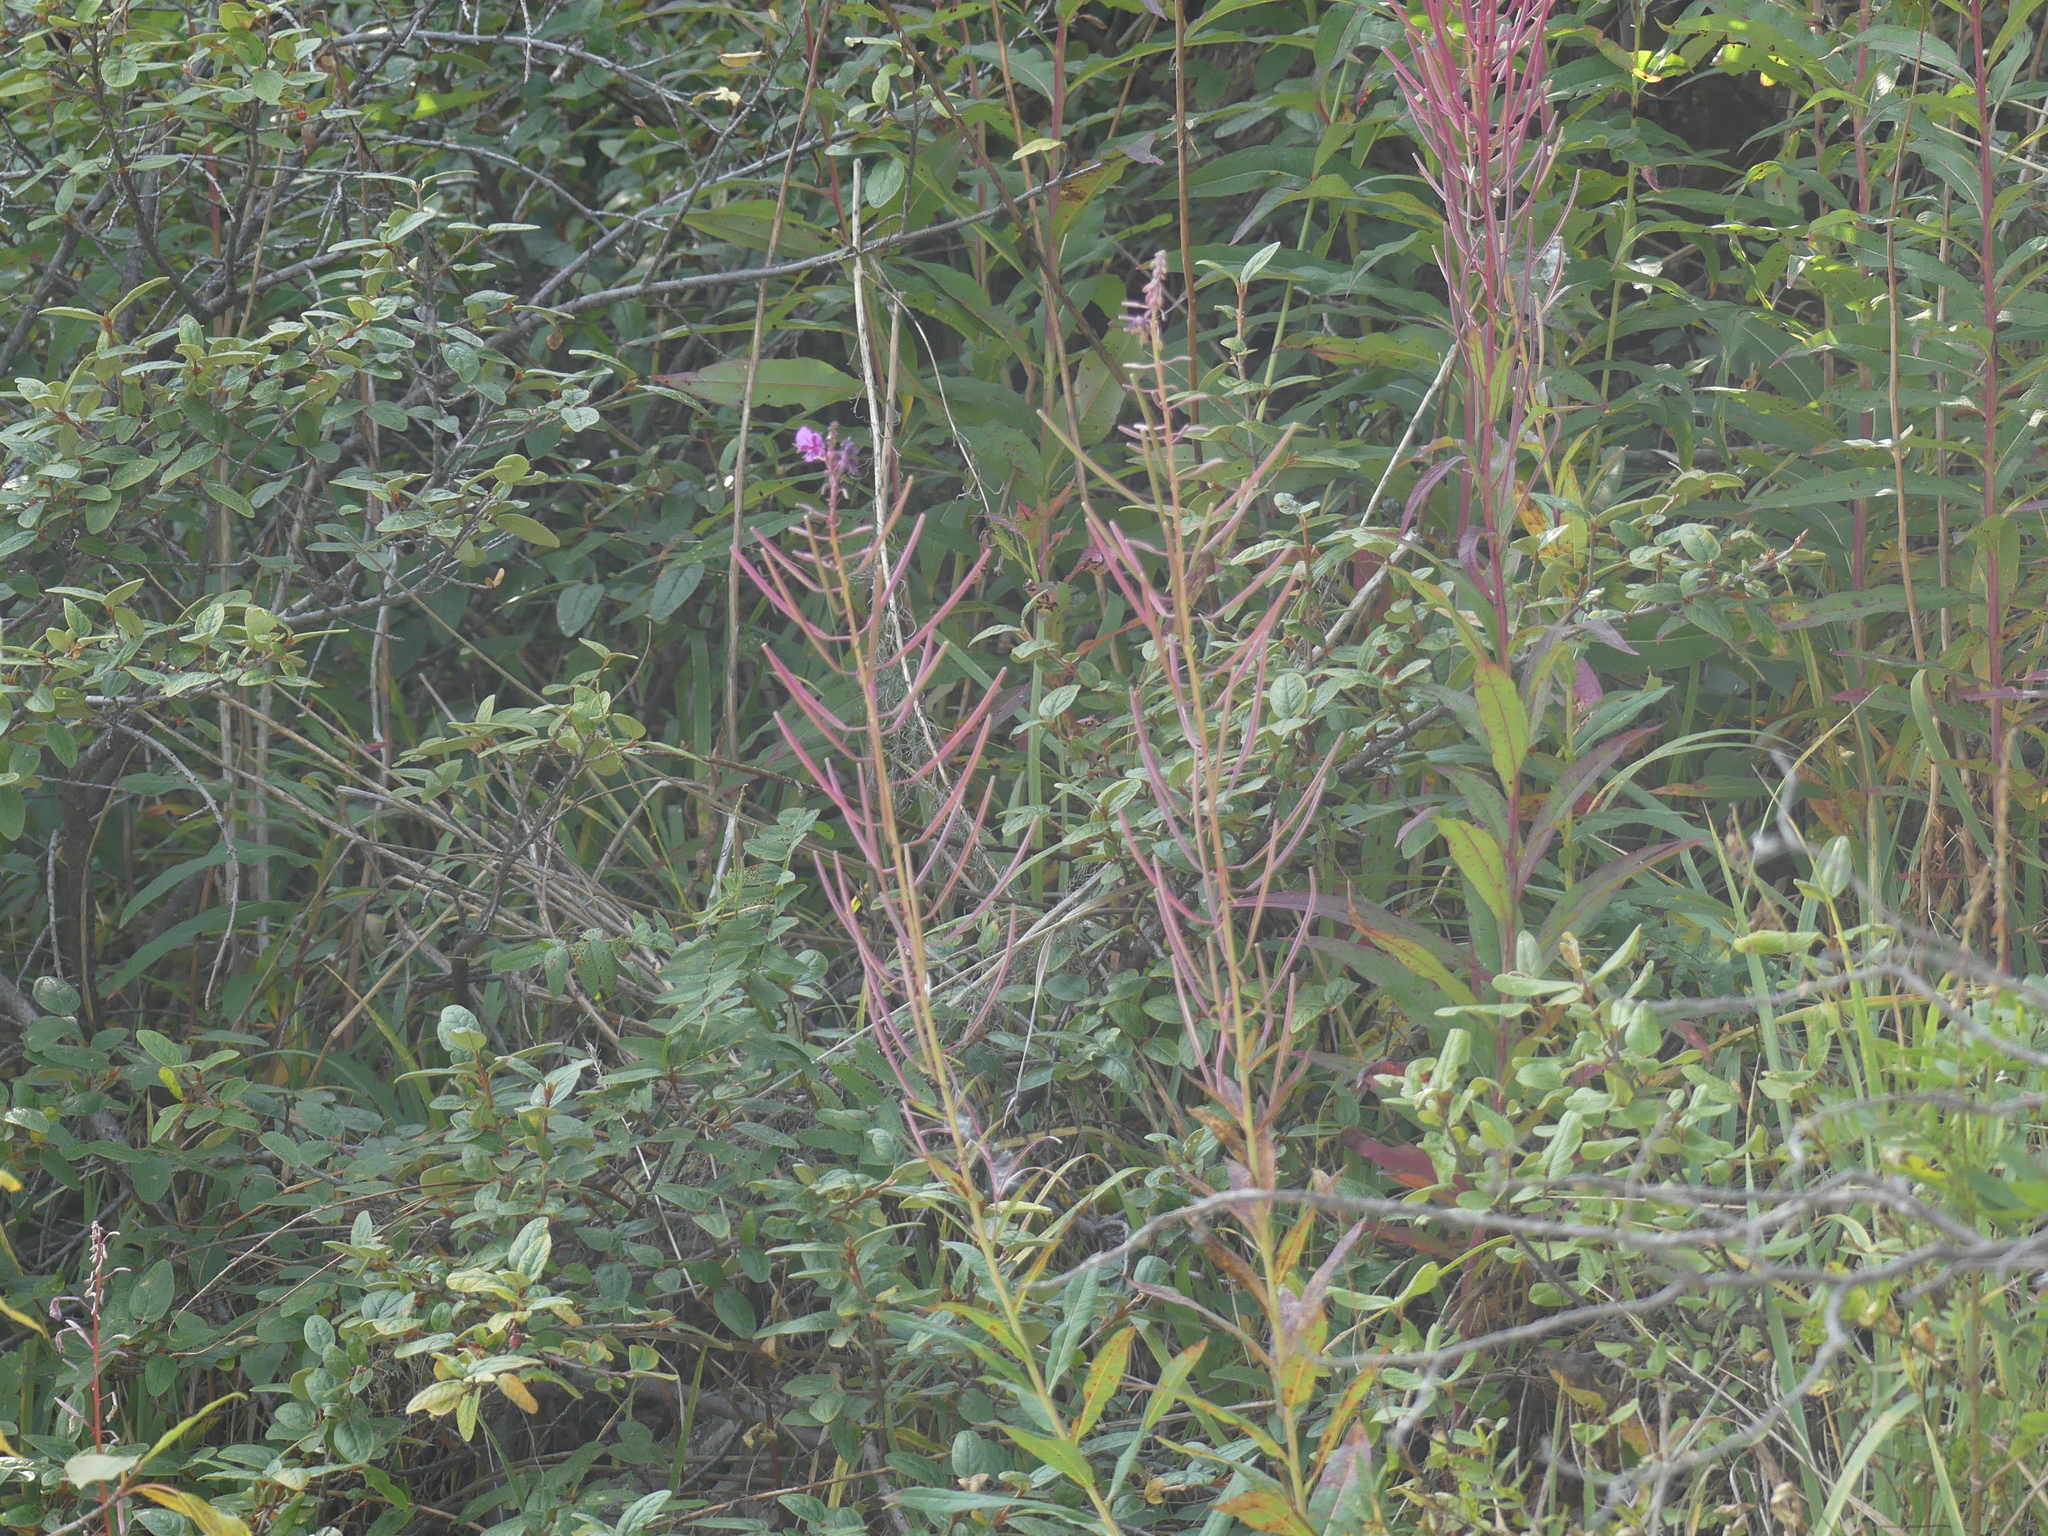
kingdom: Plantae
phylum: Tracheophyta
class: Magnoliopsida
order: Myrtales
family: Onagraceae
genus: Chamaenerion
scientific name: Chamaenerion angustifolium
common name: Fireweed
